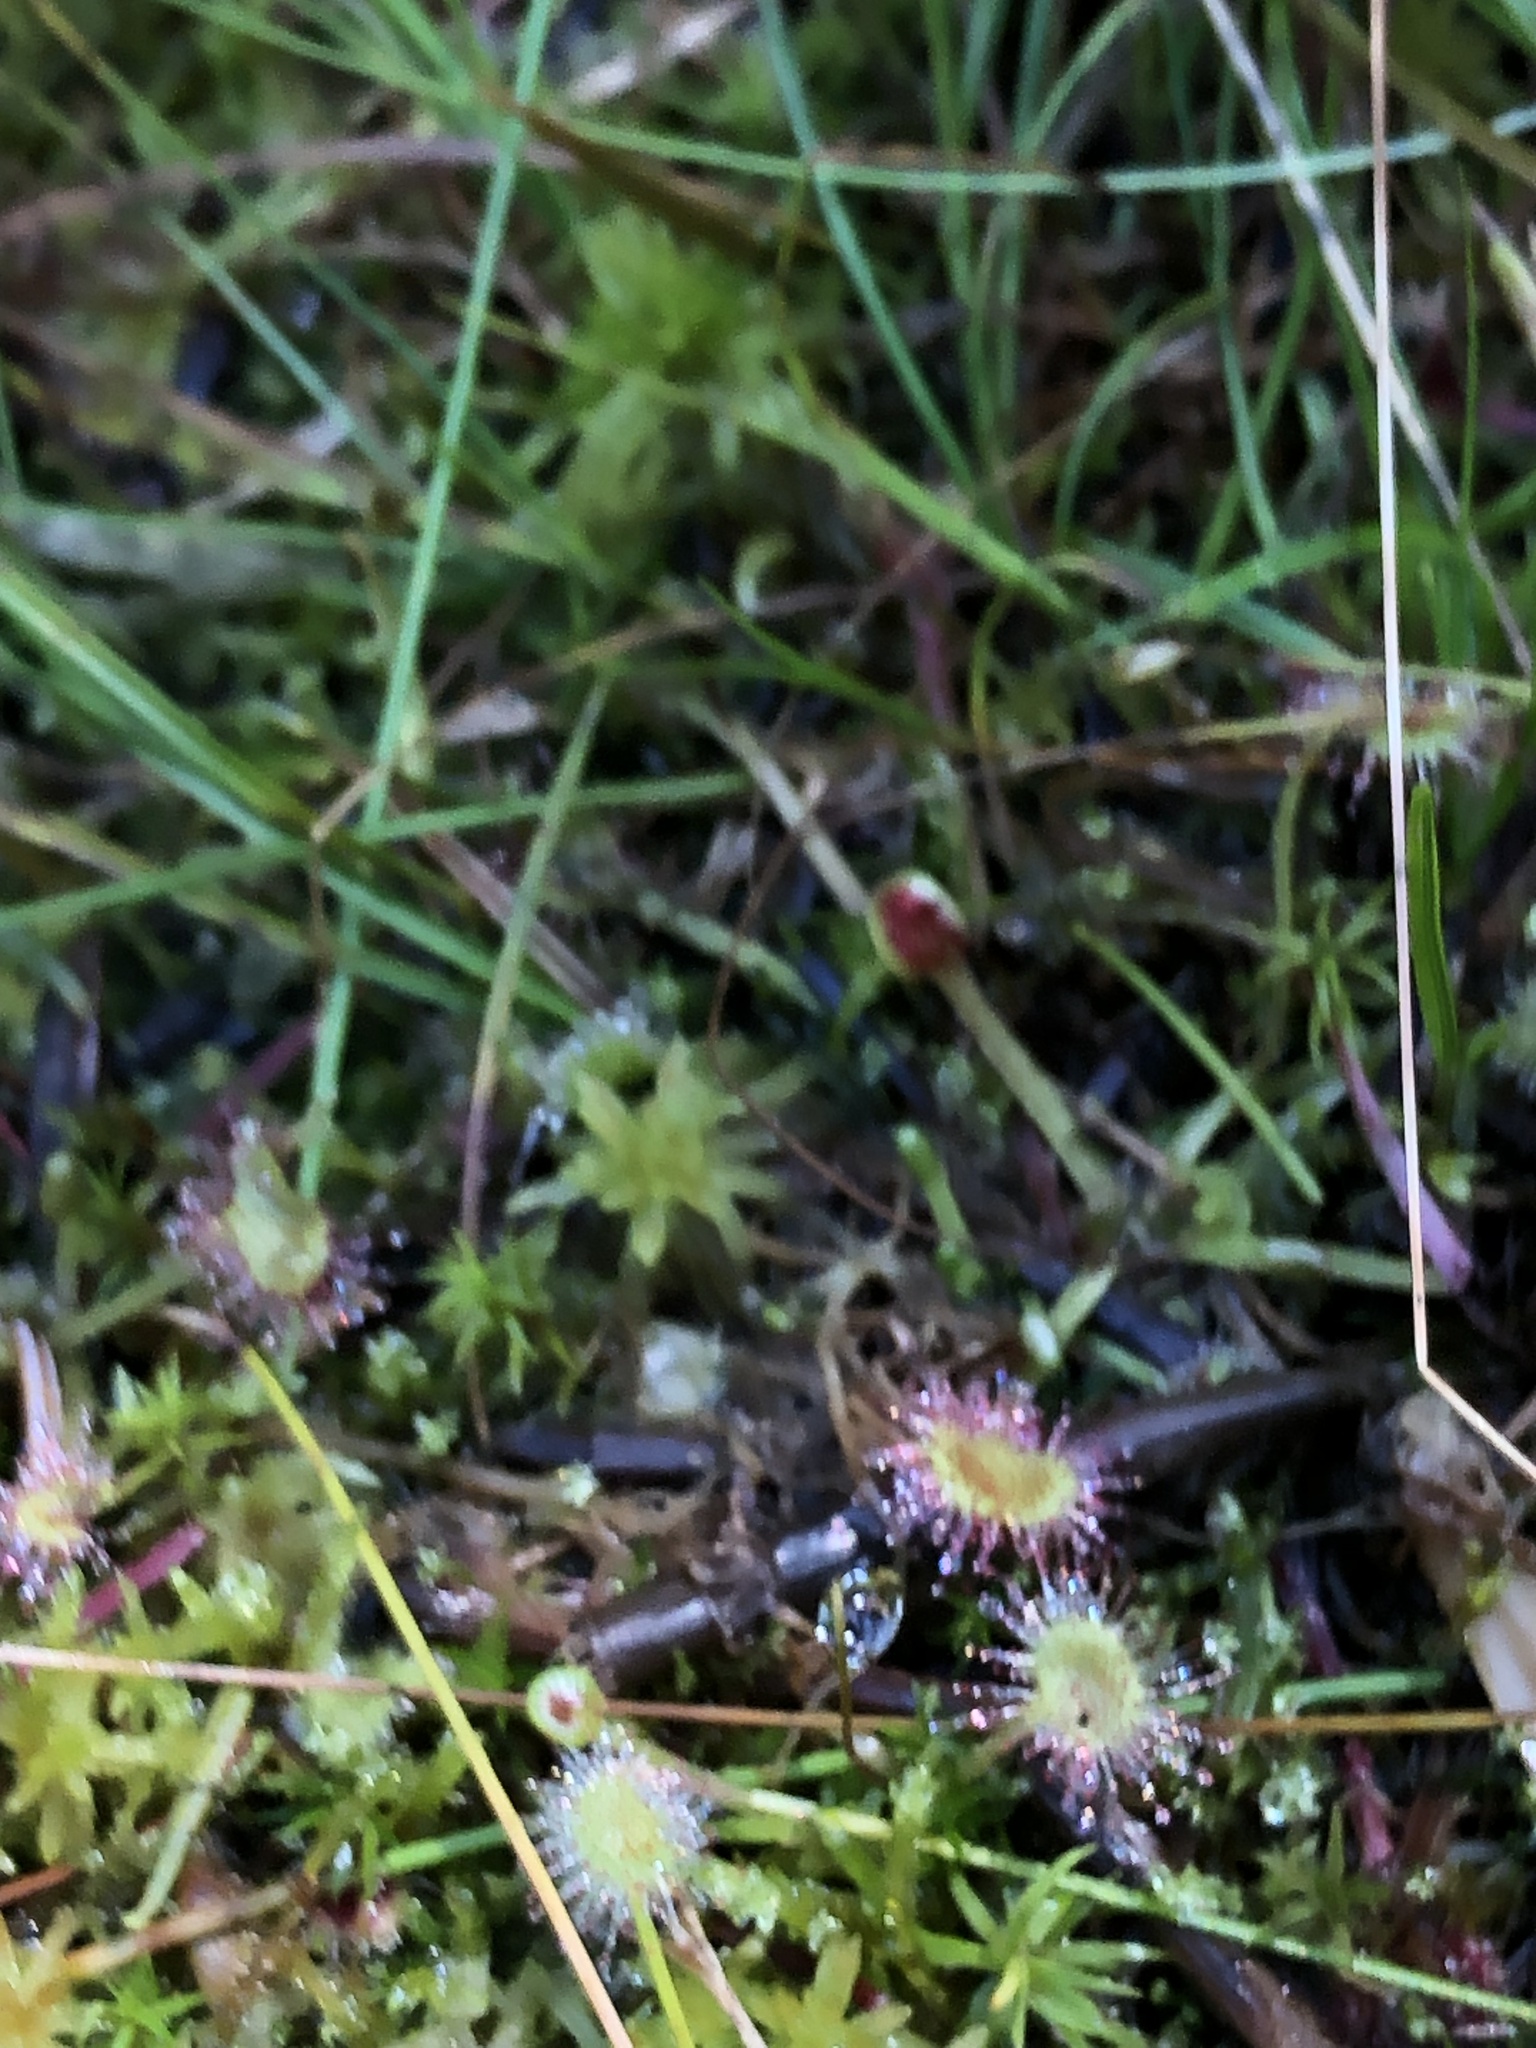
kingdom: Plantae
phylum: Tracheophyta
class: Magnoliopsida
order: Caryophyllales
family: Droseraceae
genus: Drosera
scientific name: Drosera rotundifolia
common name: Round-leaved sundew
